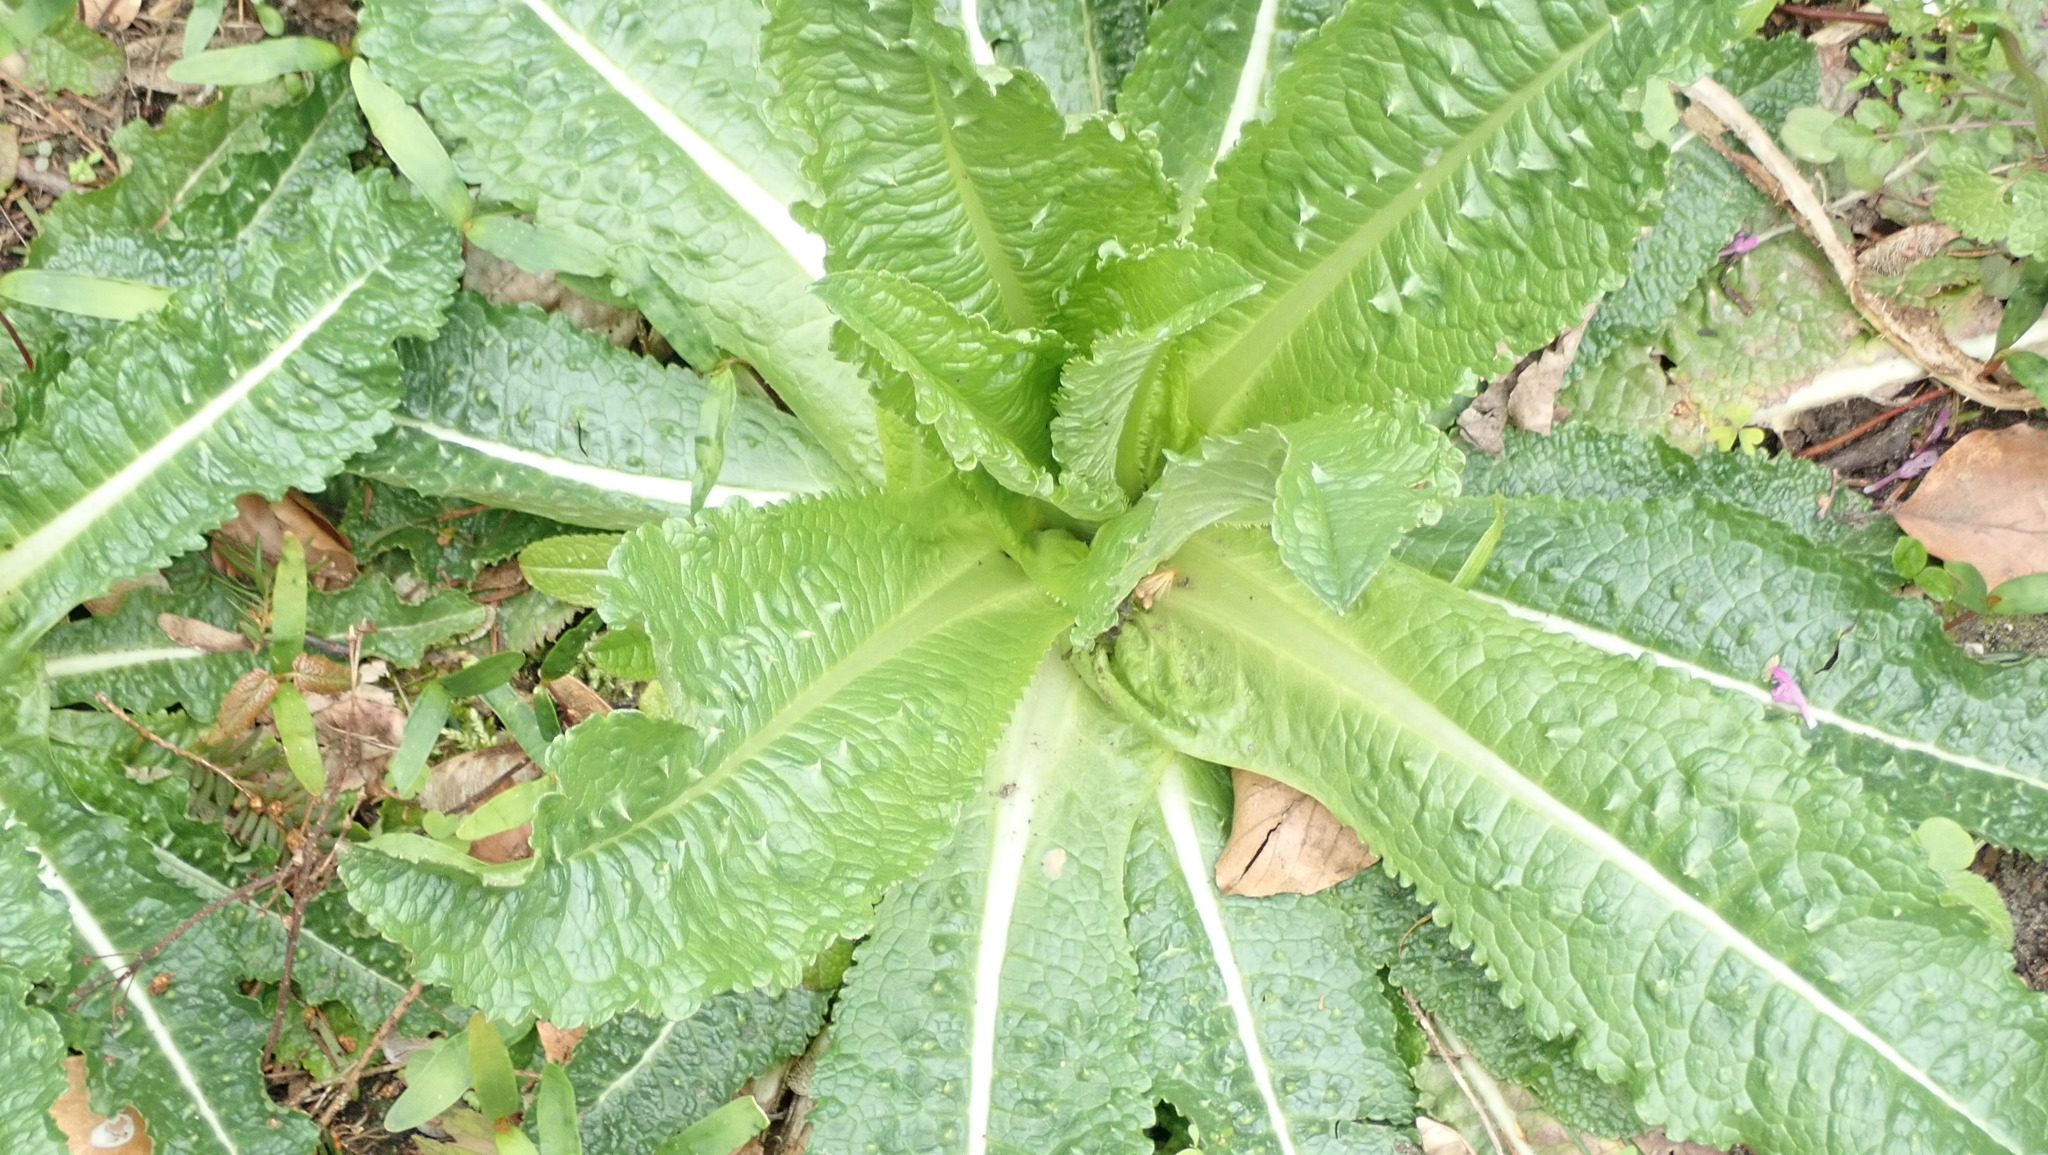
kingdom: Plantae
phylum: Tracheophyta
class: Magnoliopsida
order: Dipsacales
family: Caprifoliaceae
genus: Dipsacus
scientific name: Dipsacus fullonum
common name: Teasel
